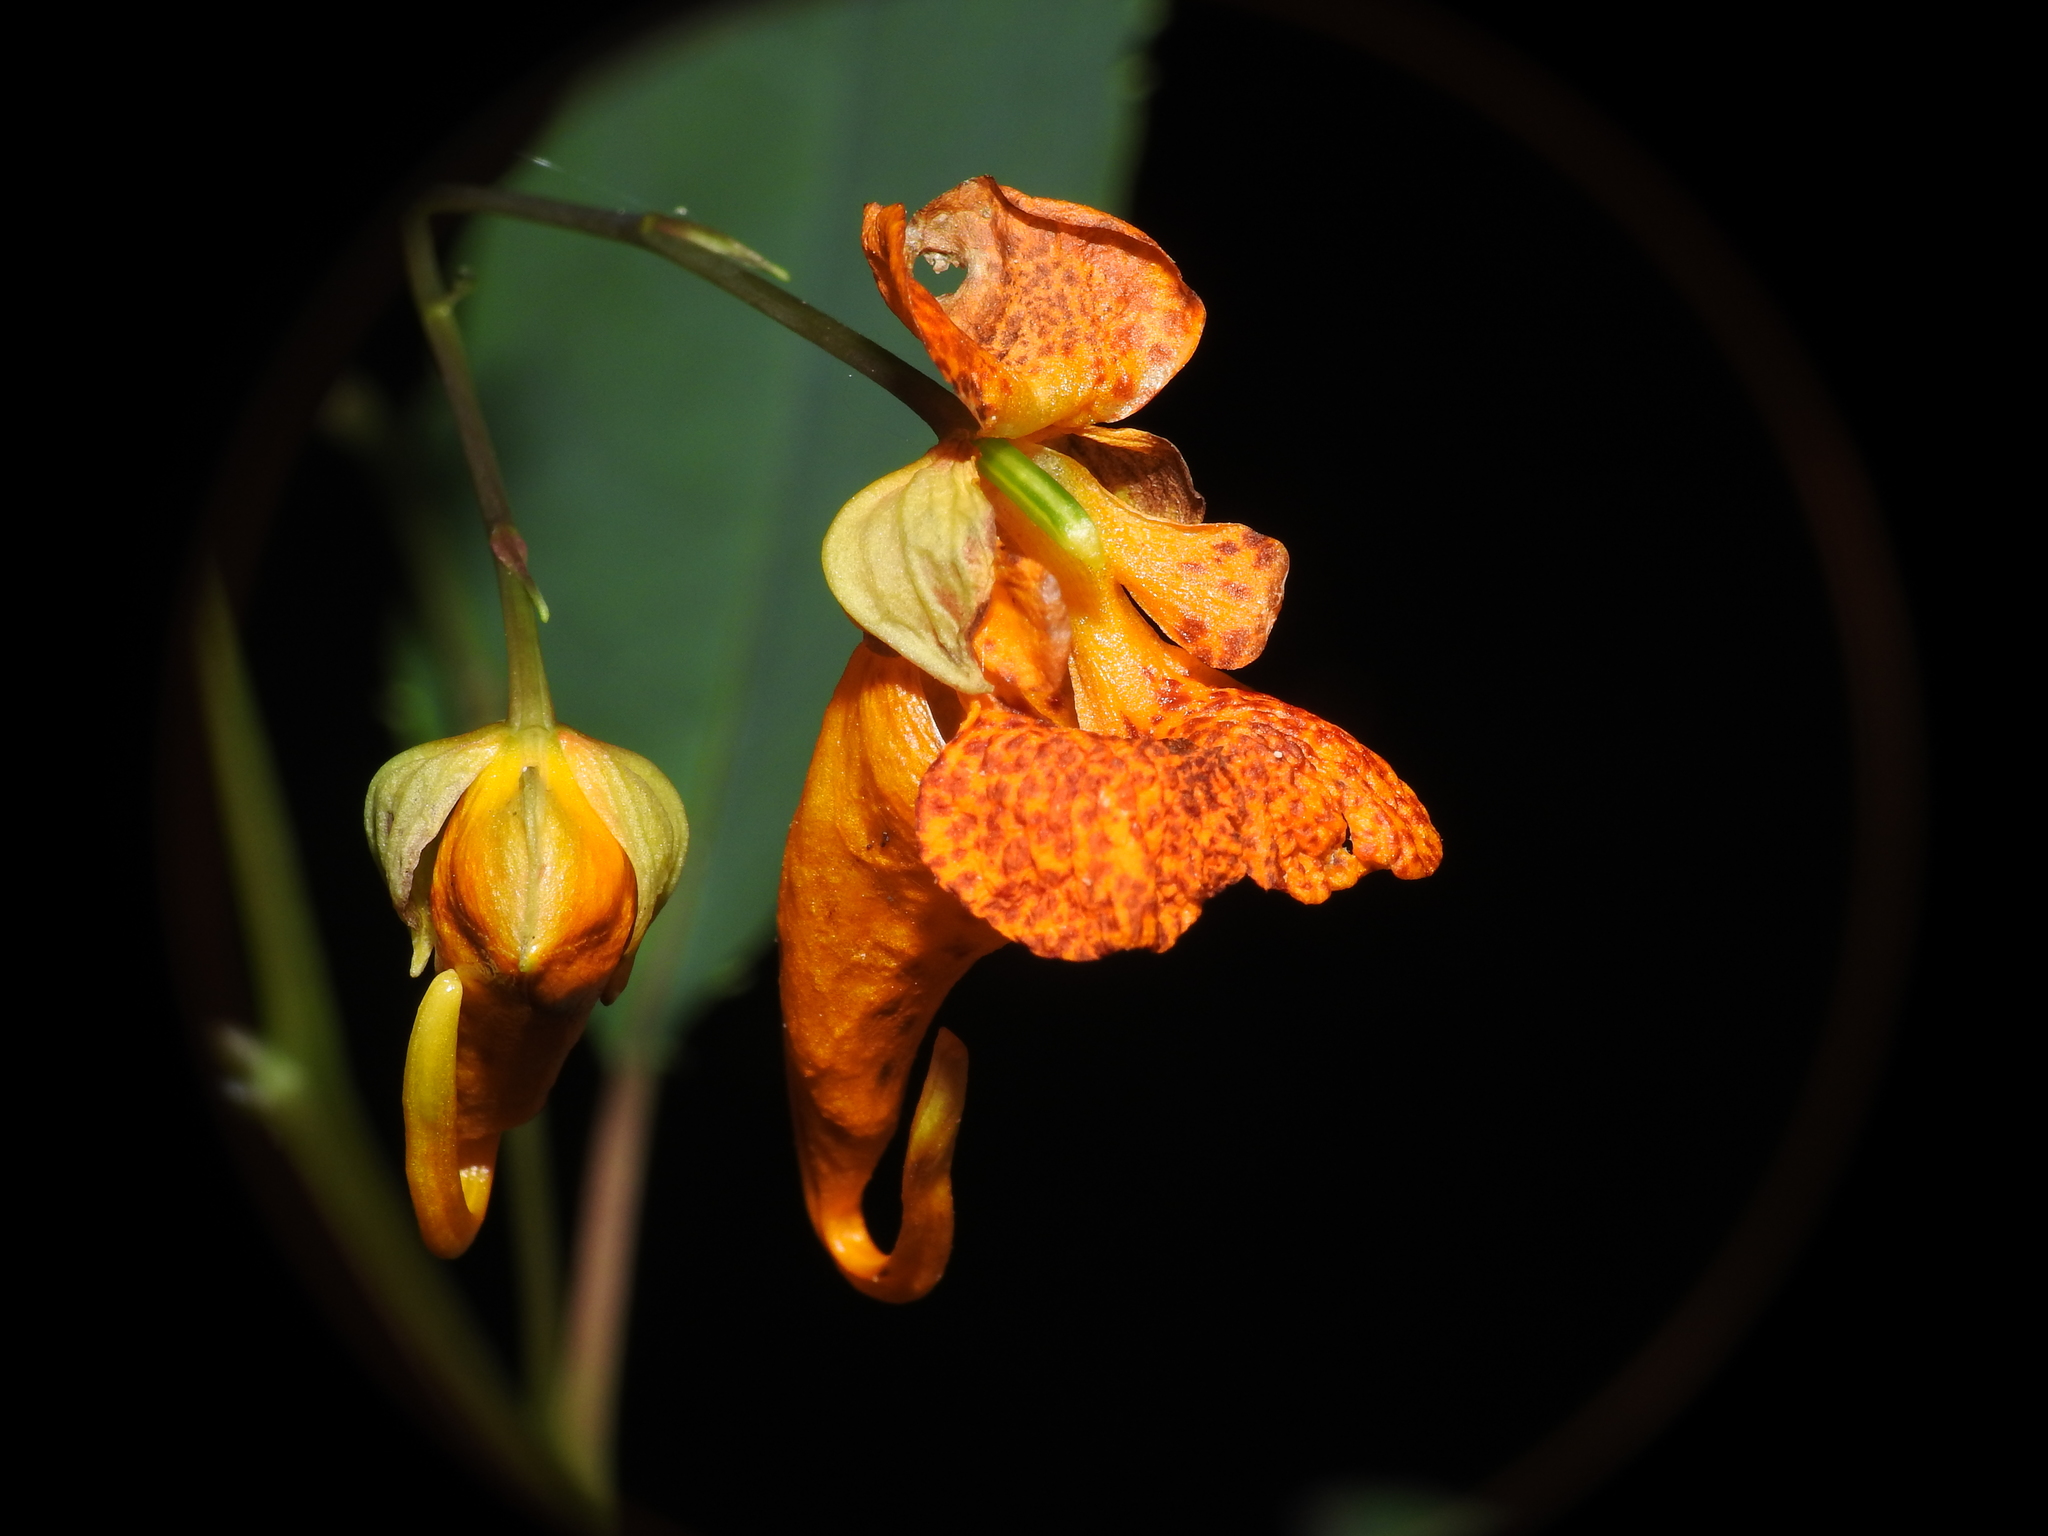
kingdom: Plantae
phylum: Tracheophyta
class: Magnoliopsida
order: Ericales
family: Balsaminaceae
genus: Impatiens
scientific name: Impatiens capensis
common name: Orange balsam
